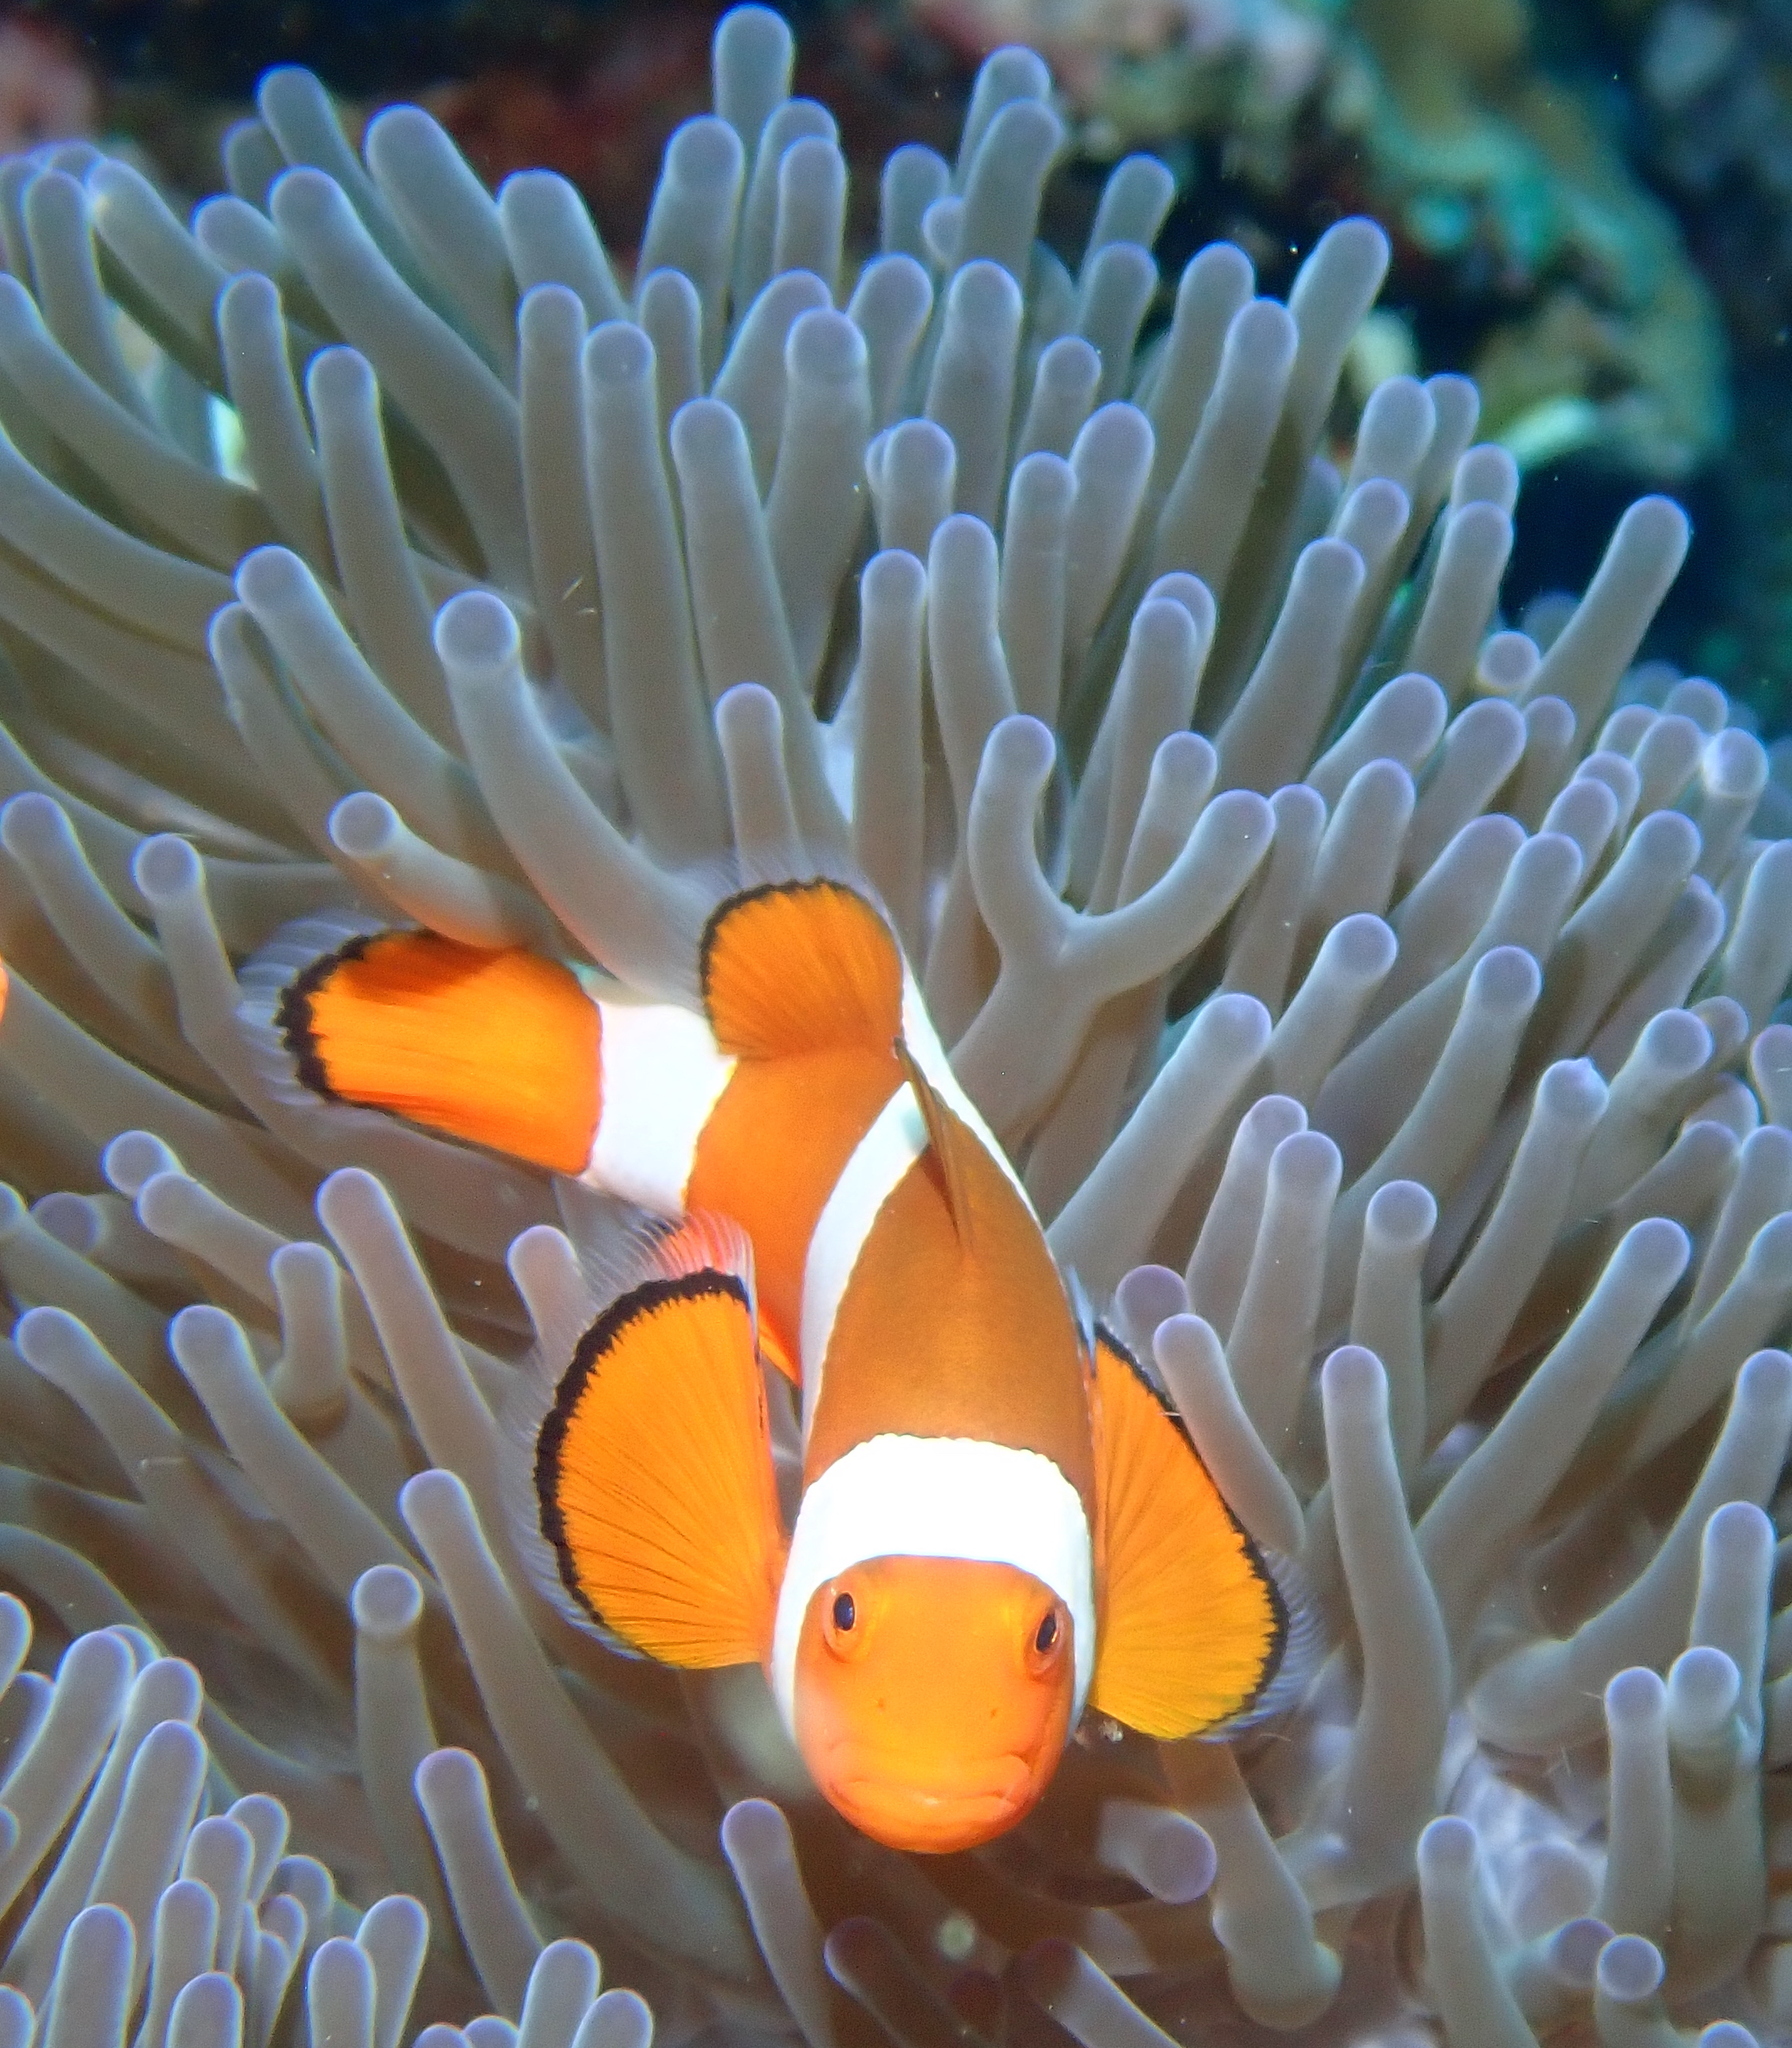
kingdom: Animalia
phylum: Chordata
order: Perciformes
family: Pomacentridae
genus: Amphiprion
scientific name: Amphiprion ocellaris
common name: Clown anemonefish
